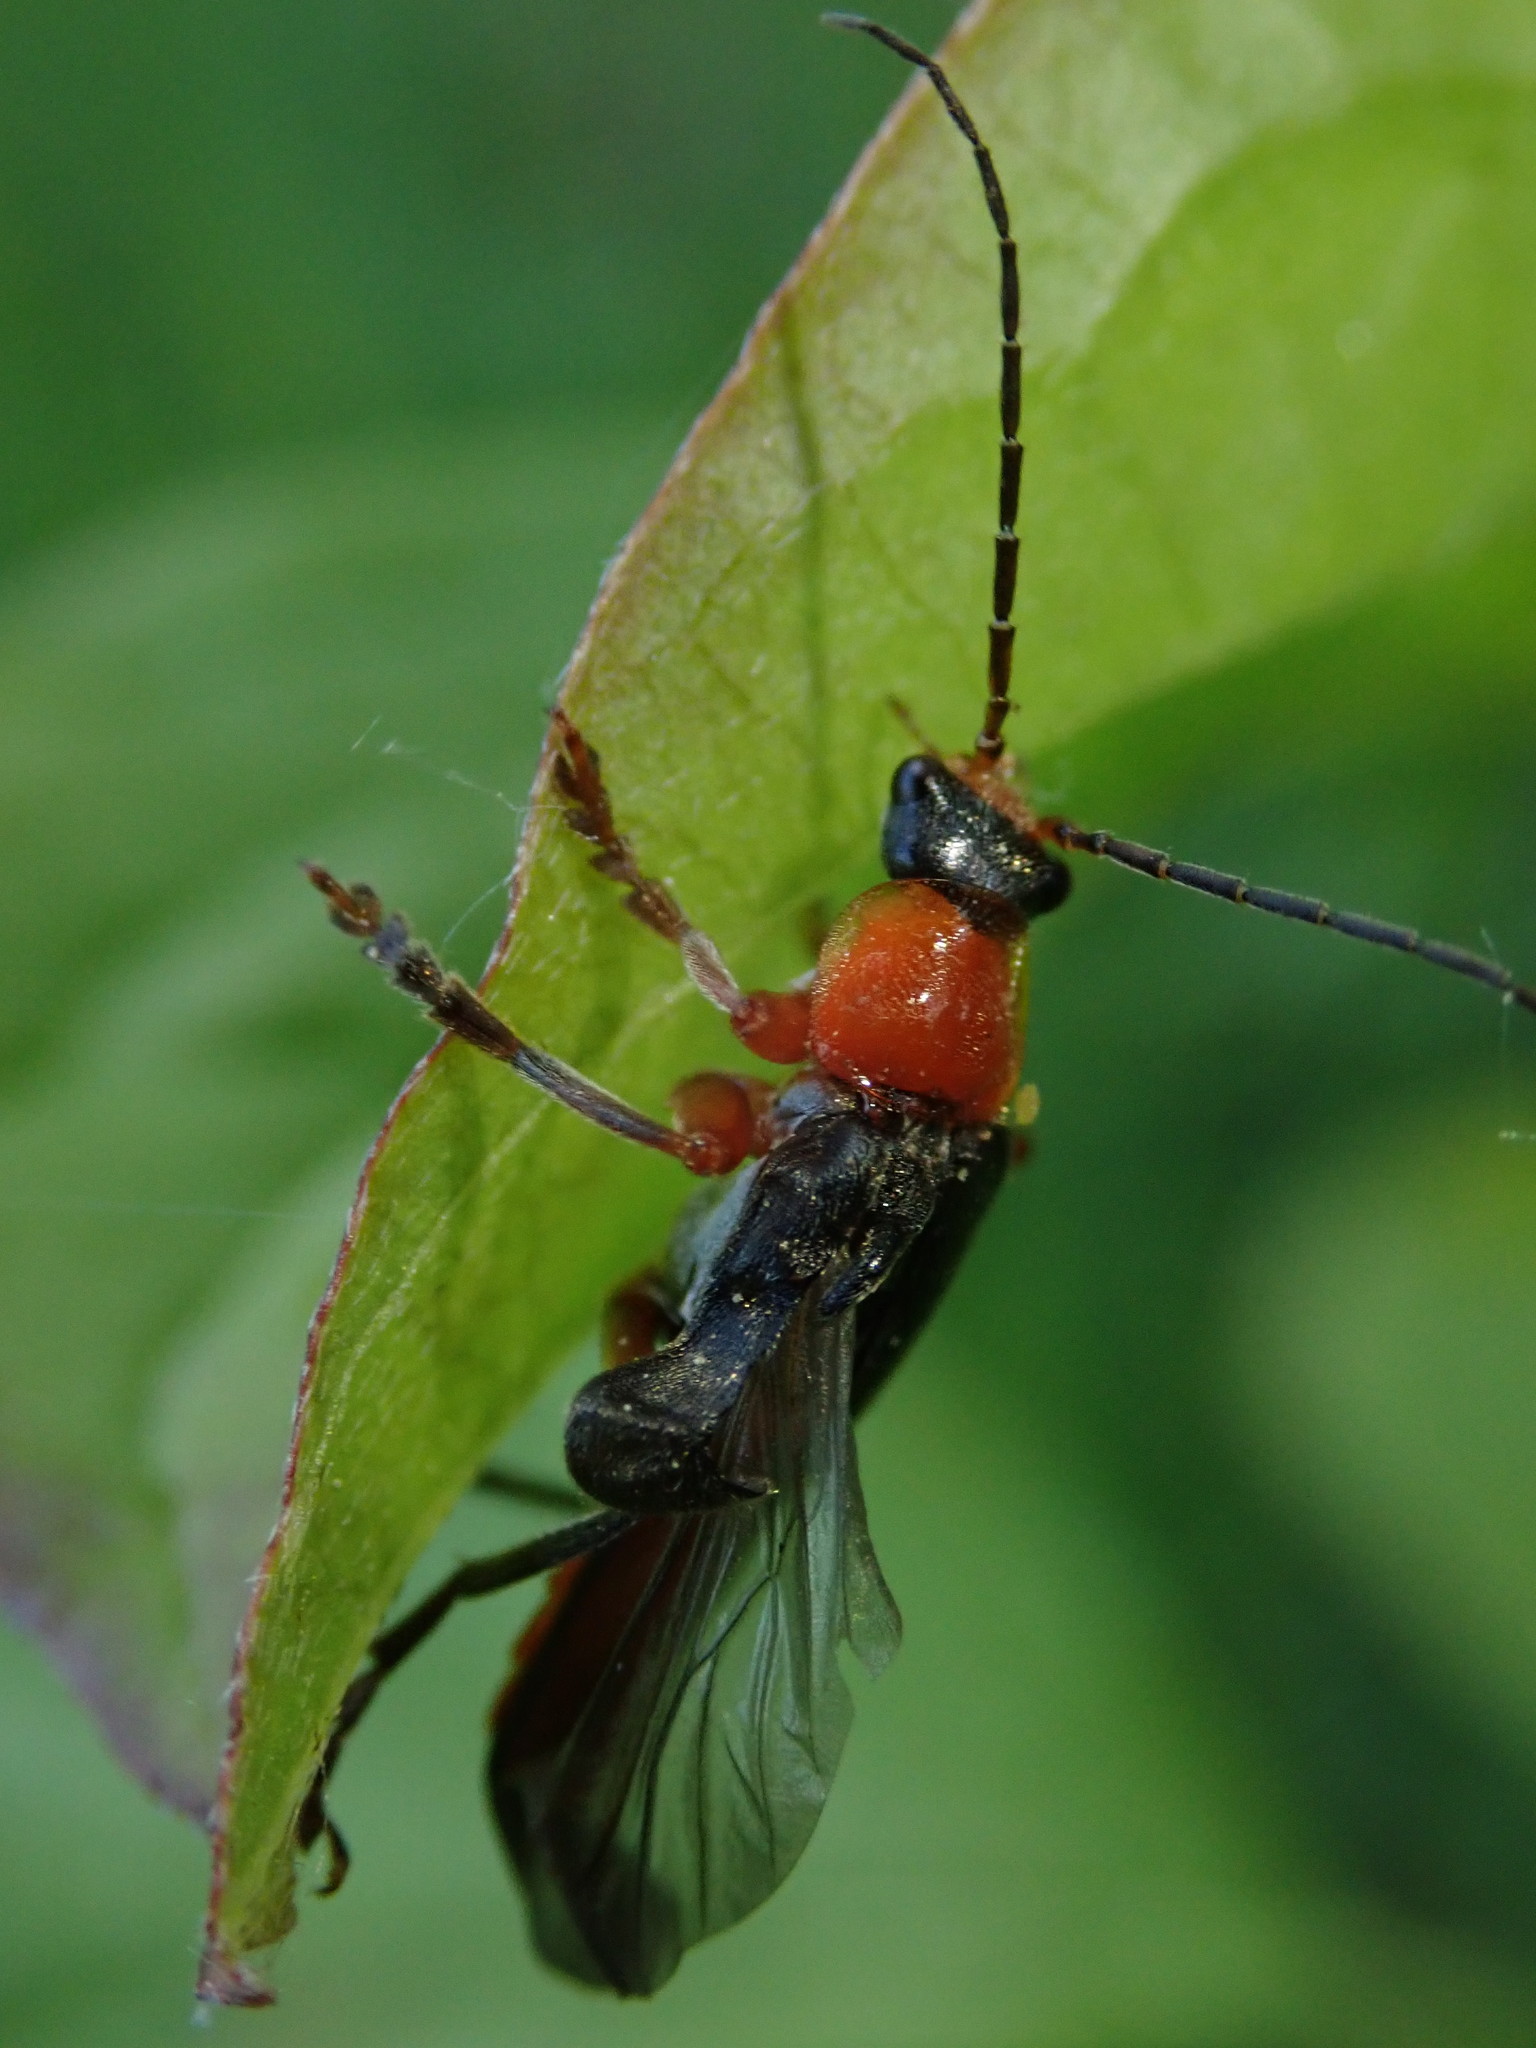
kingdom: Animalia
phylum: Arthropoda
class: Insecta
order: Coleoptera
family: Cantharidae
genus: Cantharis
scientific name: Cantharis pellucida
